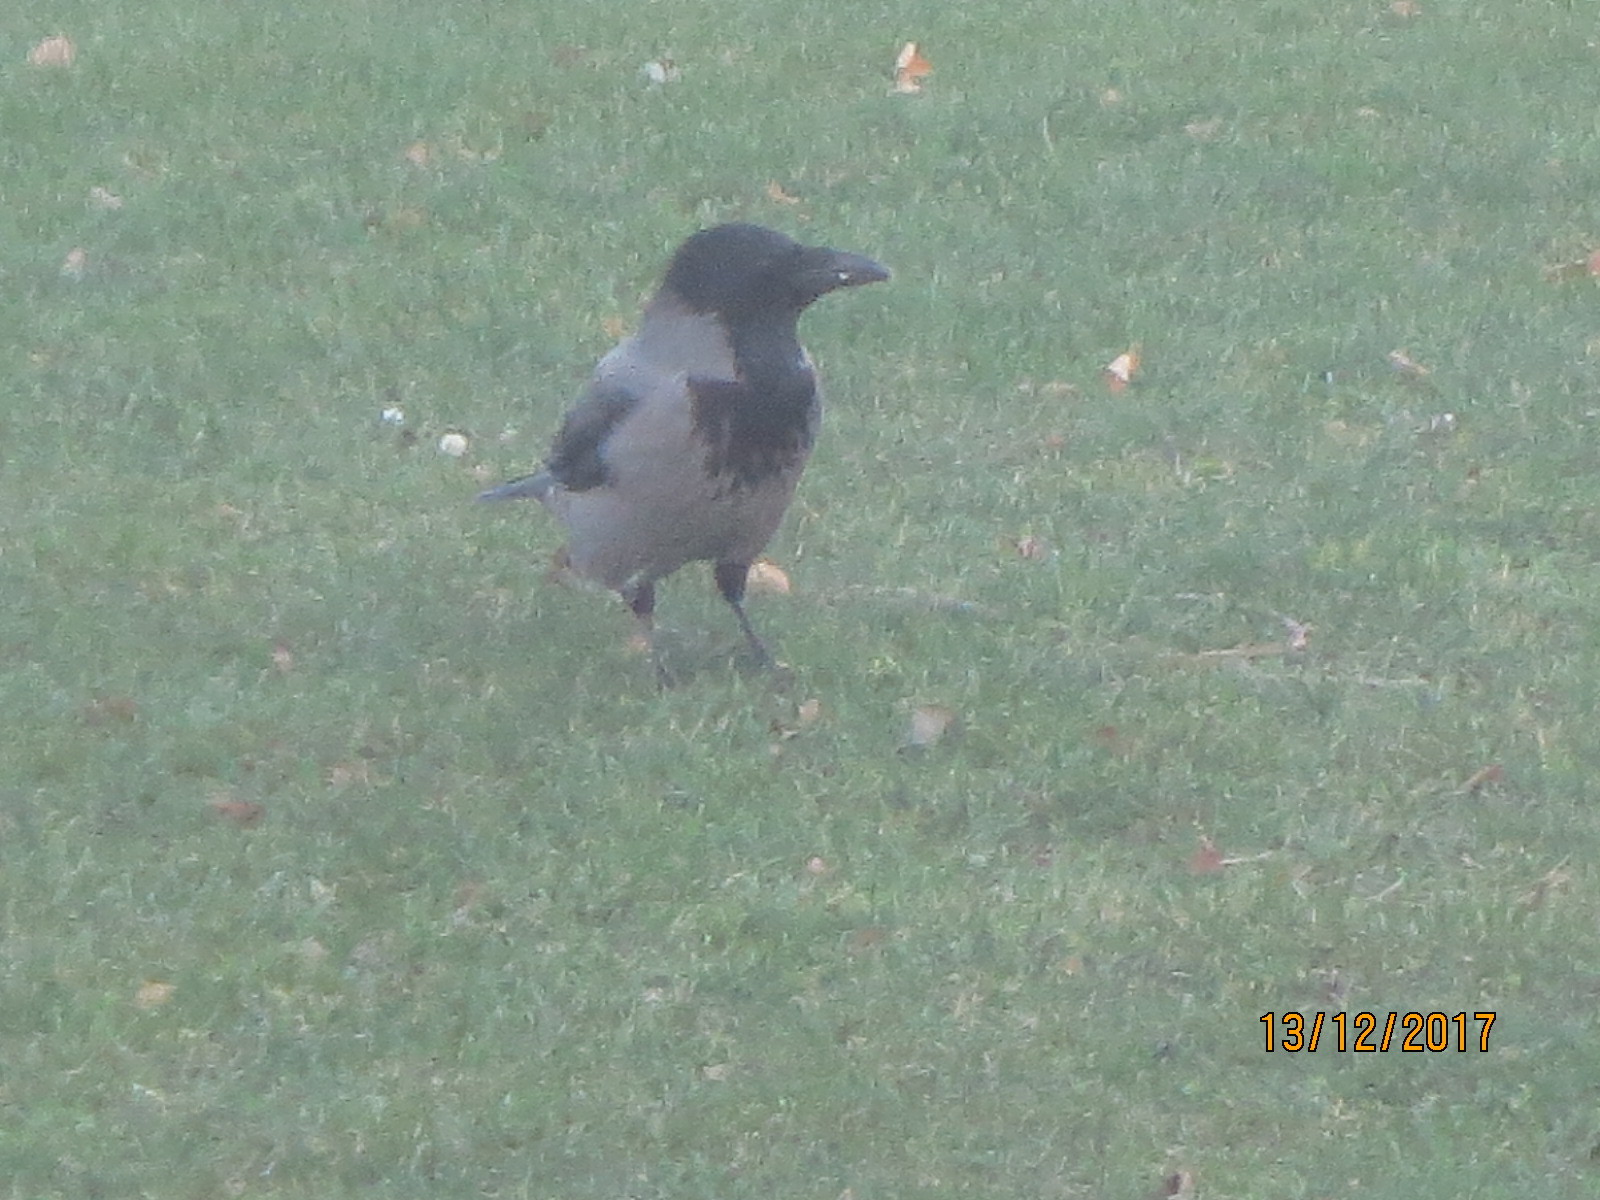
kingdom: Animalia
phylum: Chordata
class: Aves
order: Passeriformes
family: Corvidae
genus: Corvus
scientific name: Corvus cornix
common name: Hooded crow
